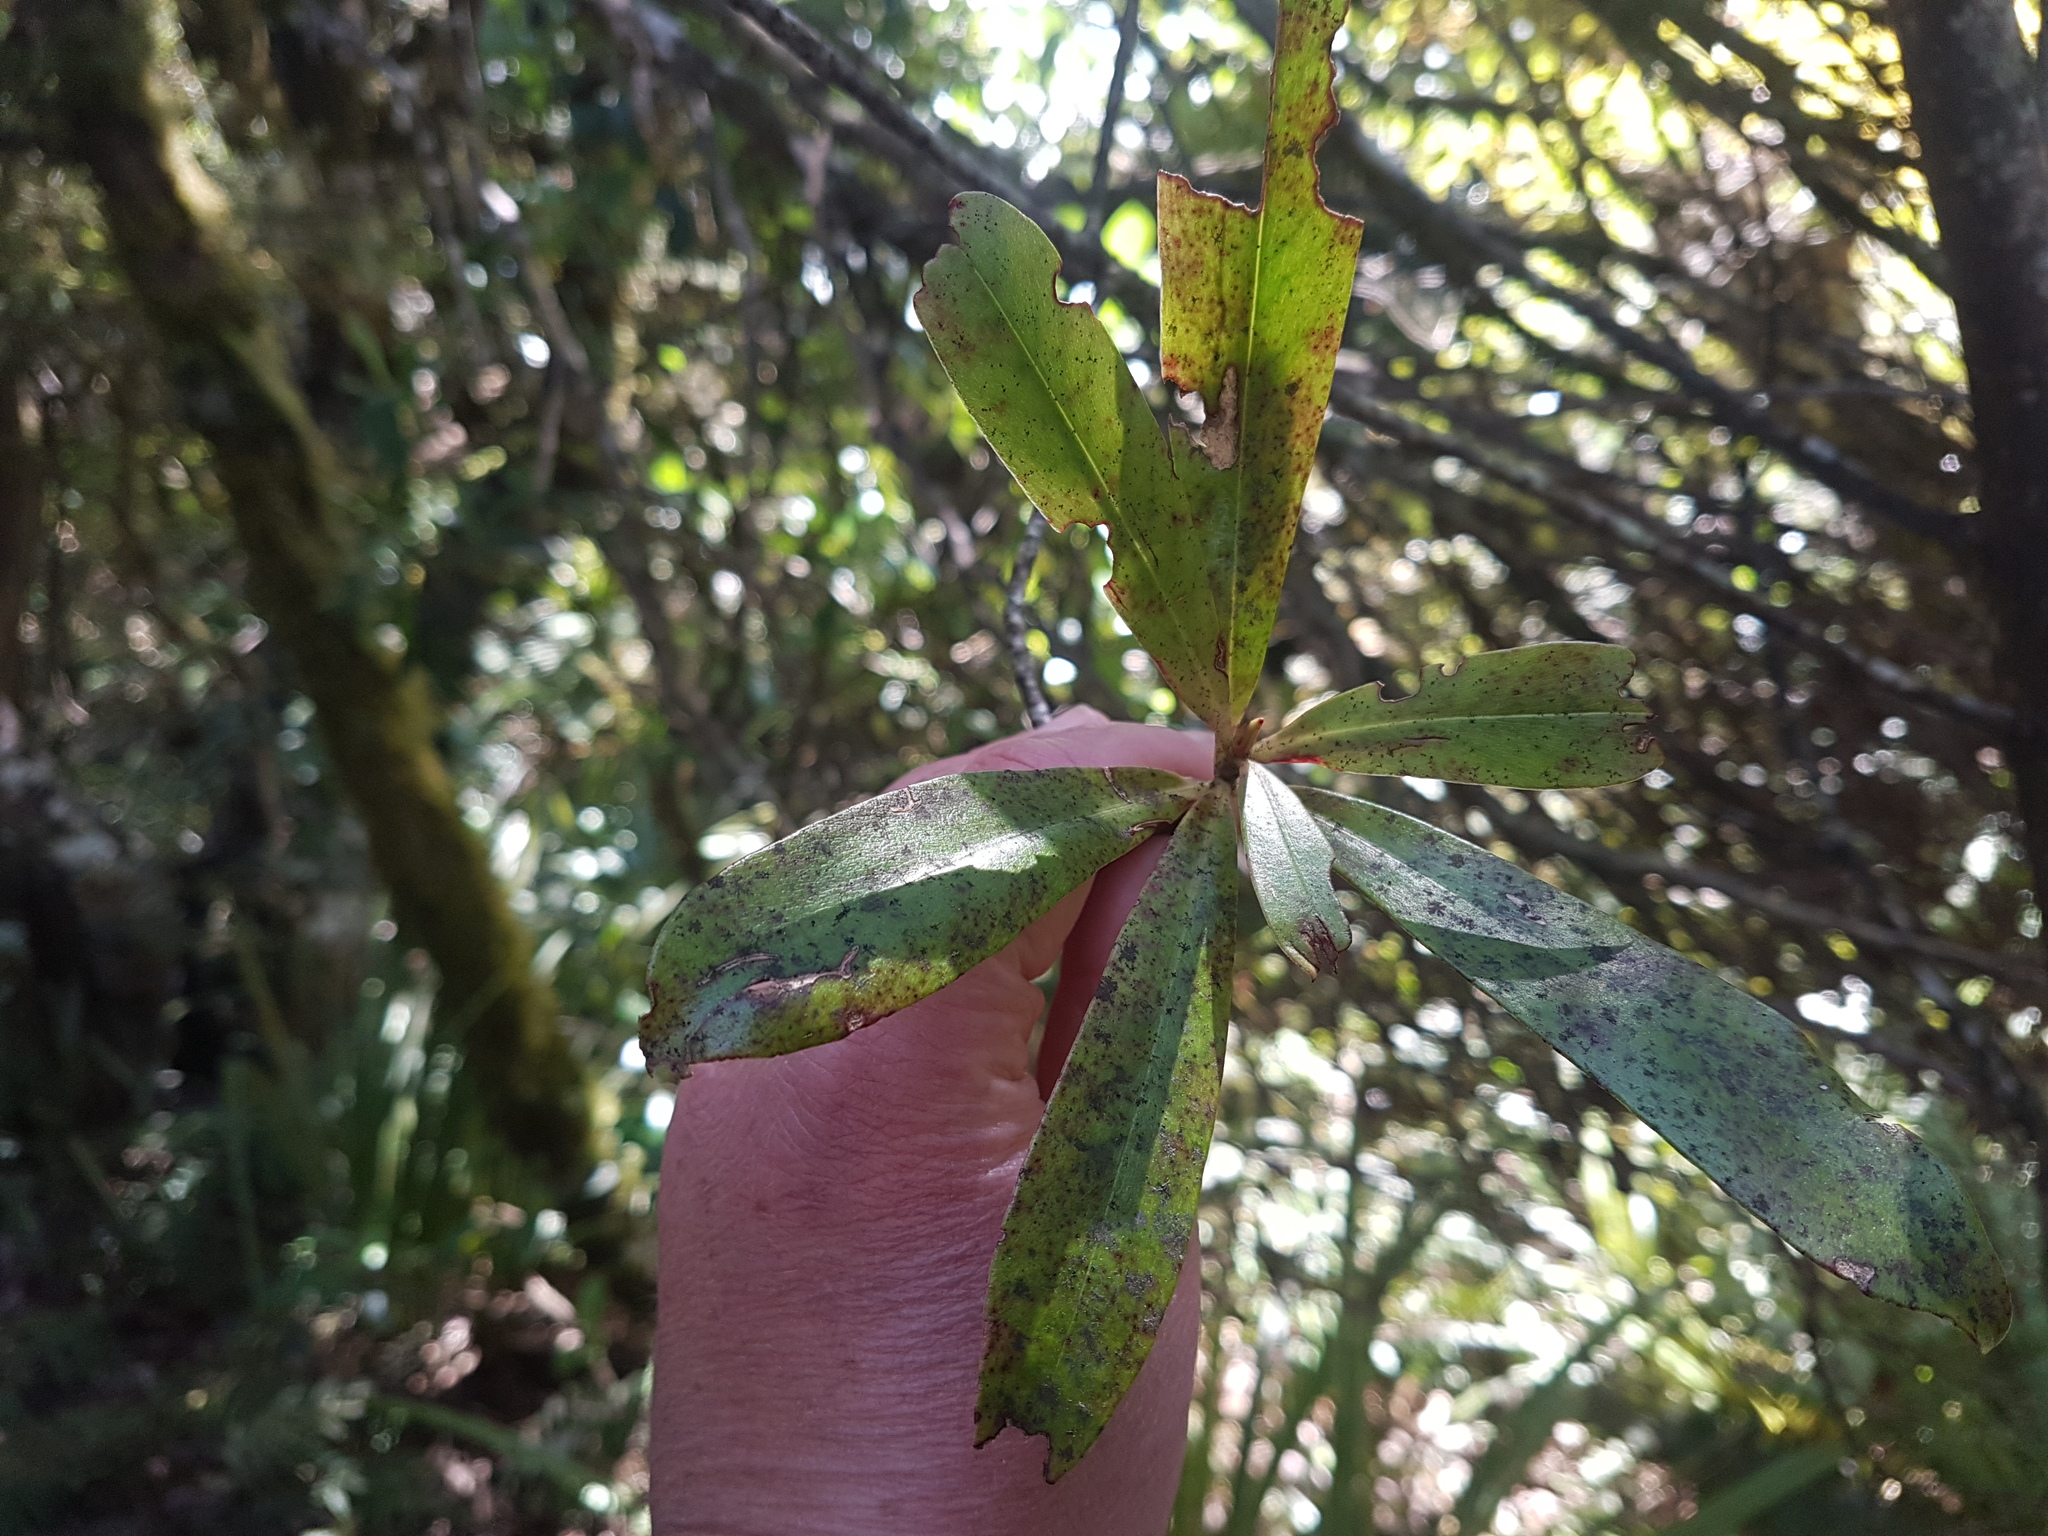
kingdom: Plantae
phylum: Tracheophyta
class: Magnoliopsida
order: Ericales
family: Primulaceae
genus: Myrsine
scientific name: Myrsine salicina
